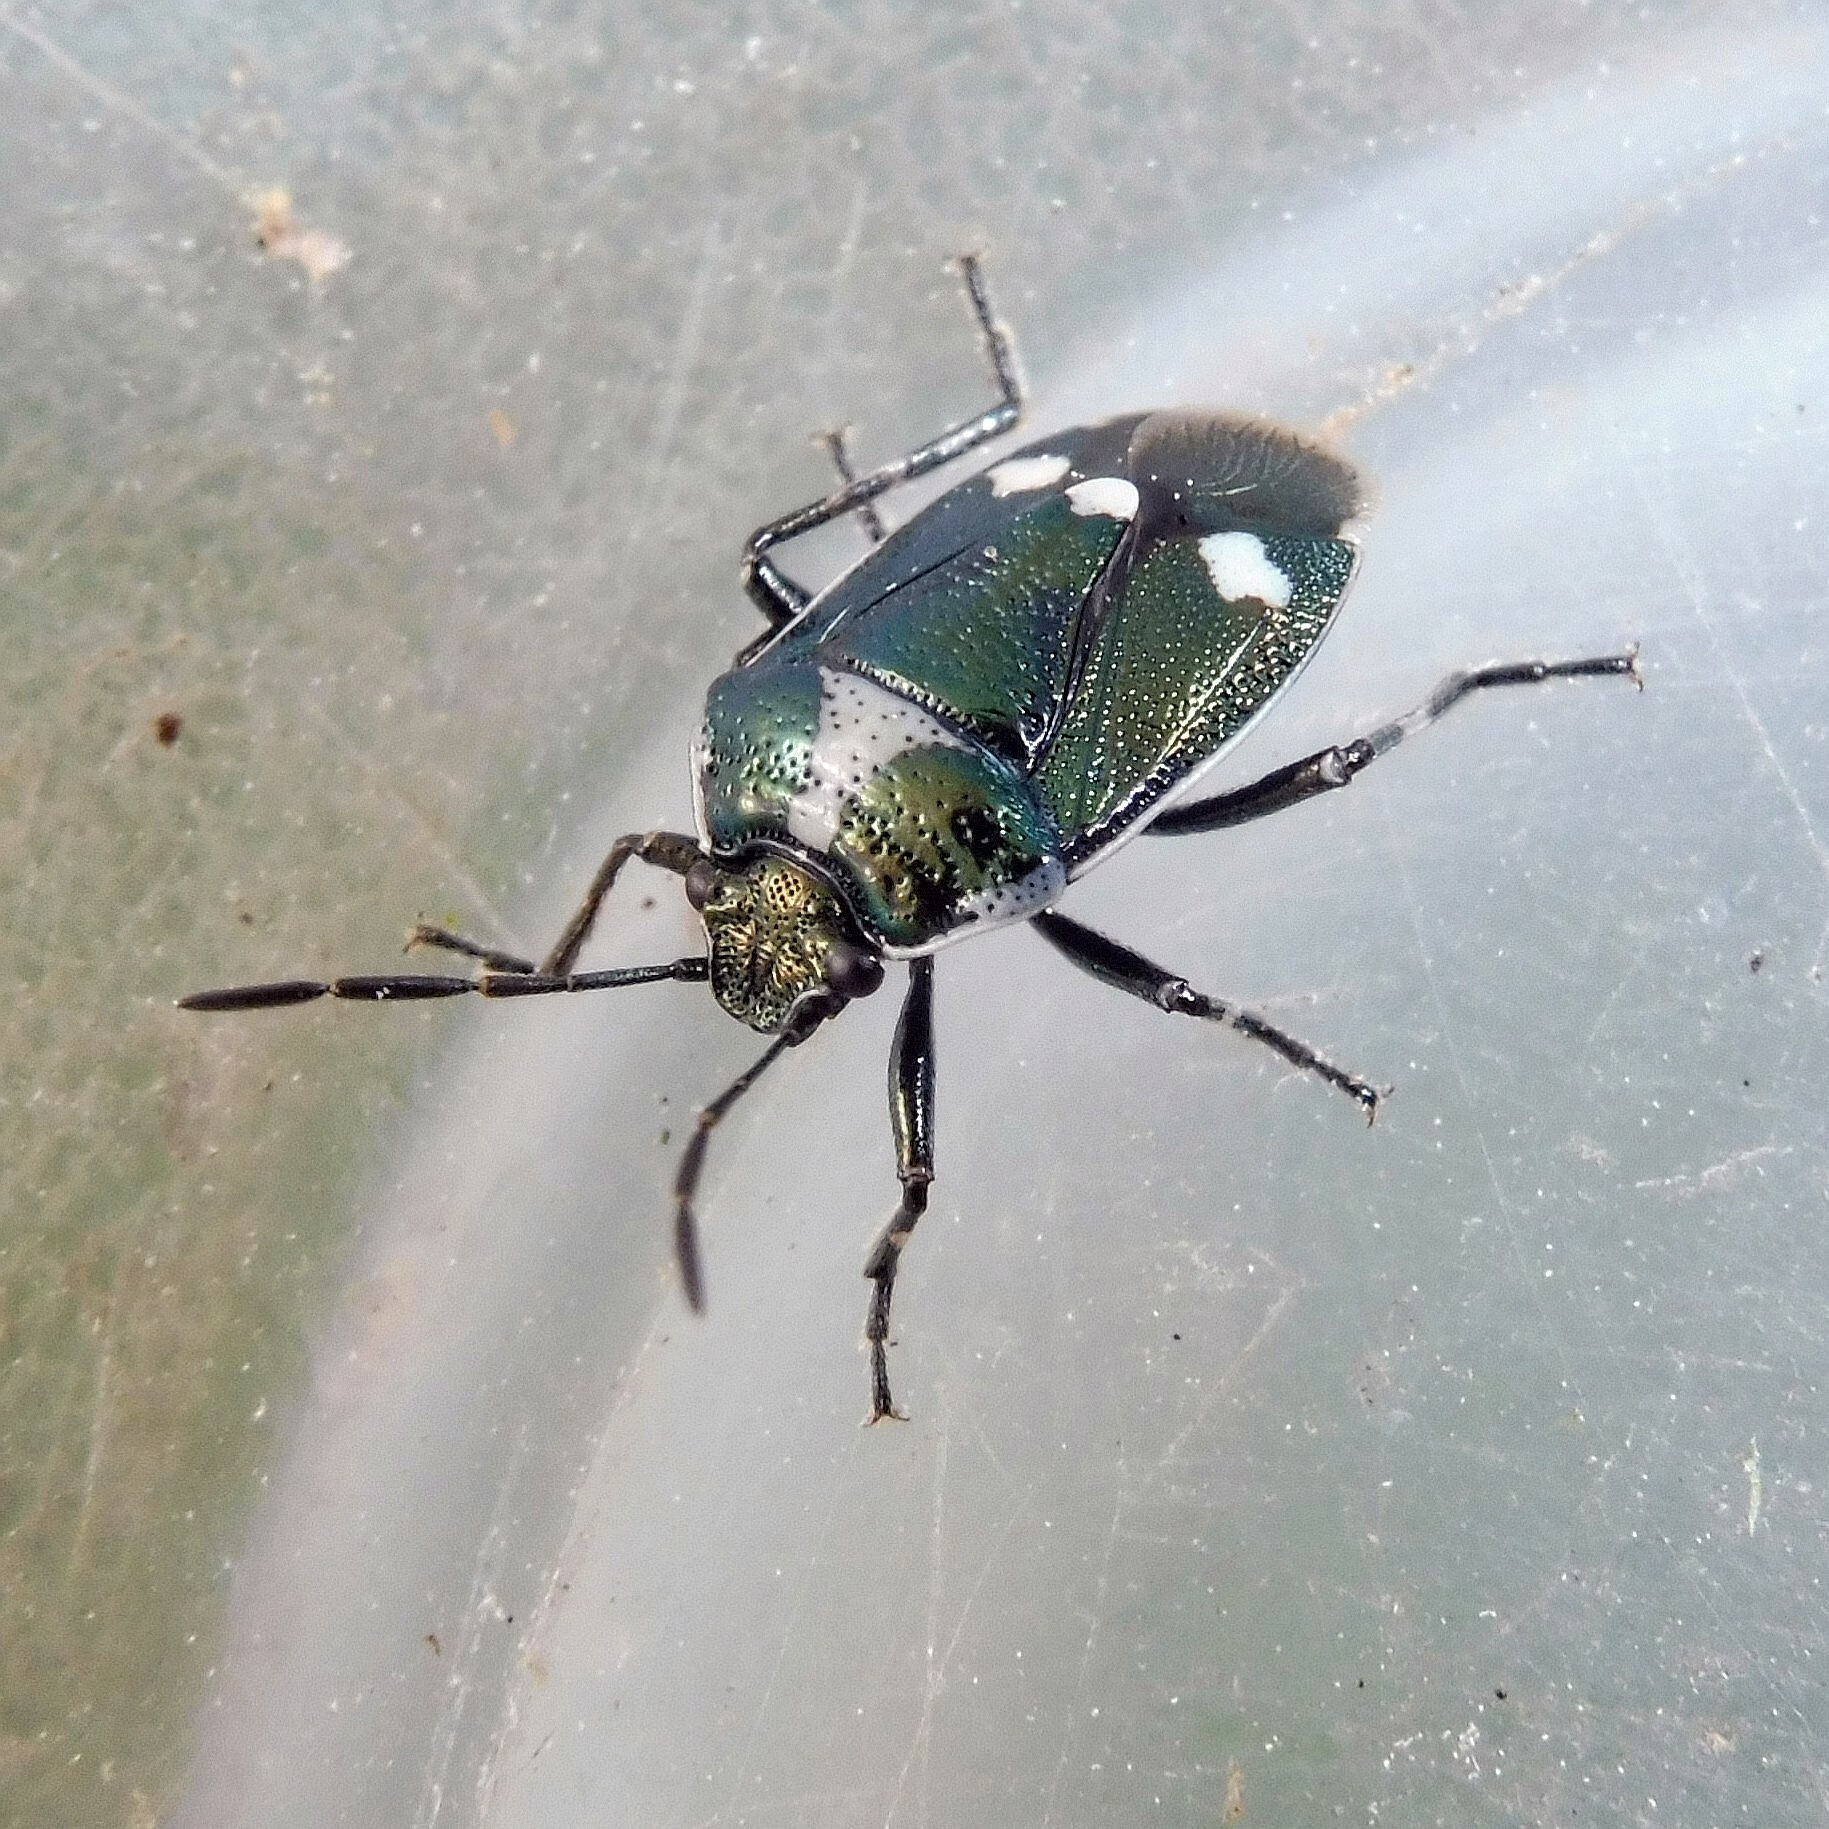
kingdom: Animalia
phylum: Arthropoda
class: Insecta
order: Hemiptera
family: Pentatomidae
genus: Eurydema
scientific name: Eurydema oleracea
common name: Cabbage bug
